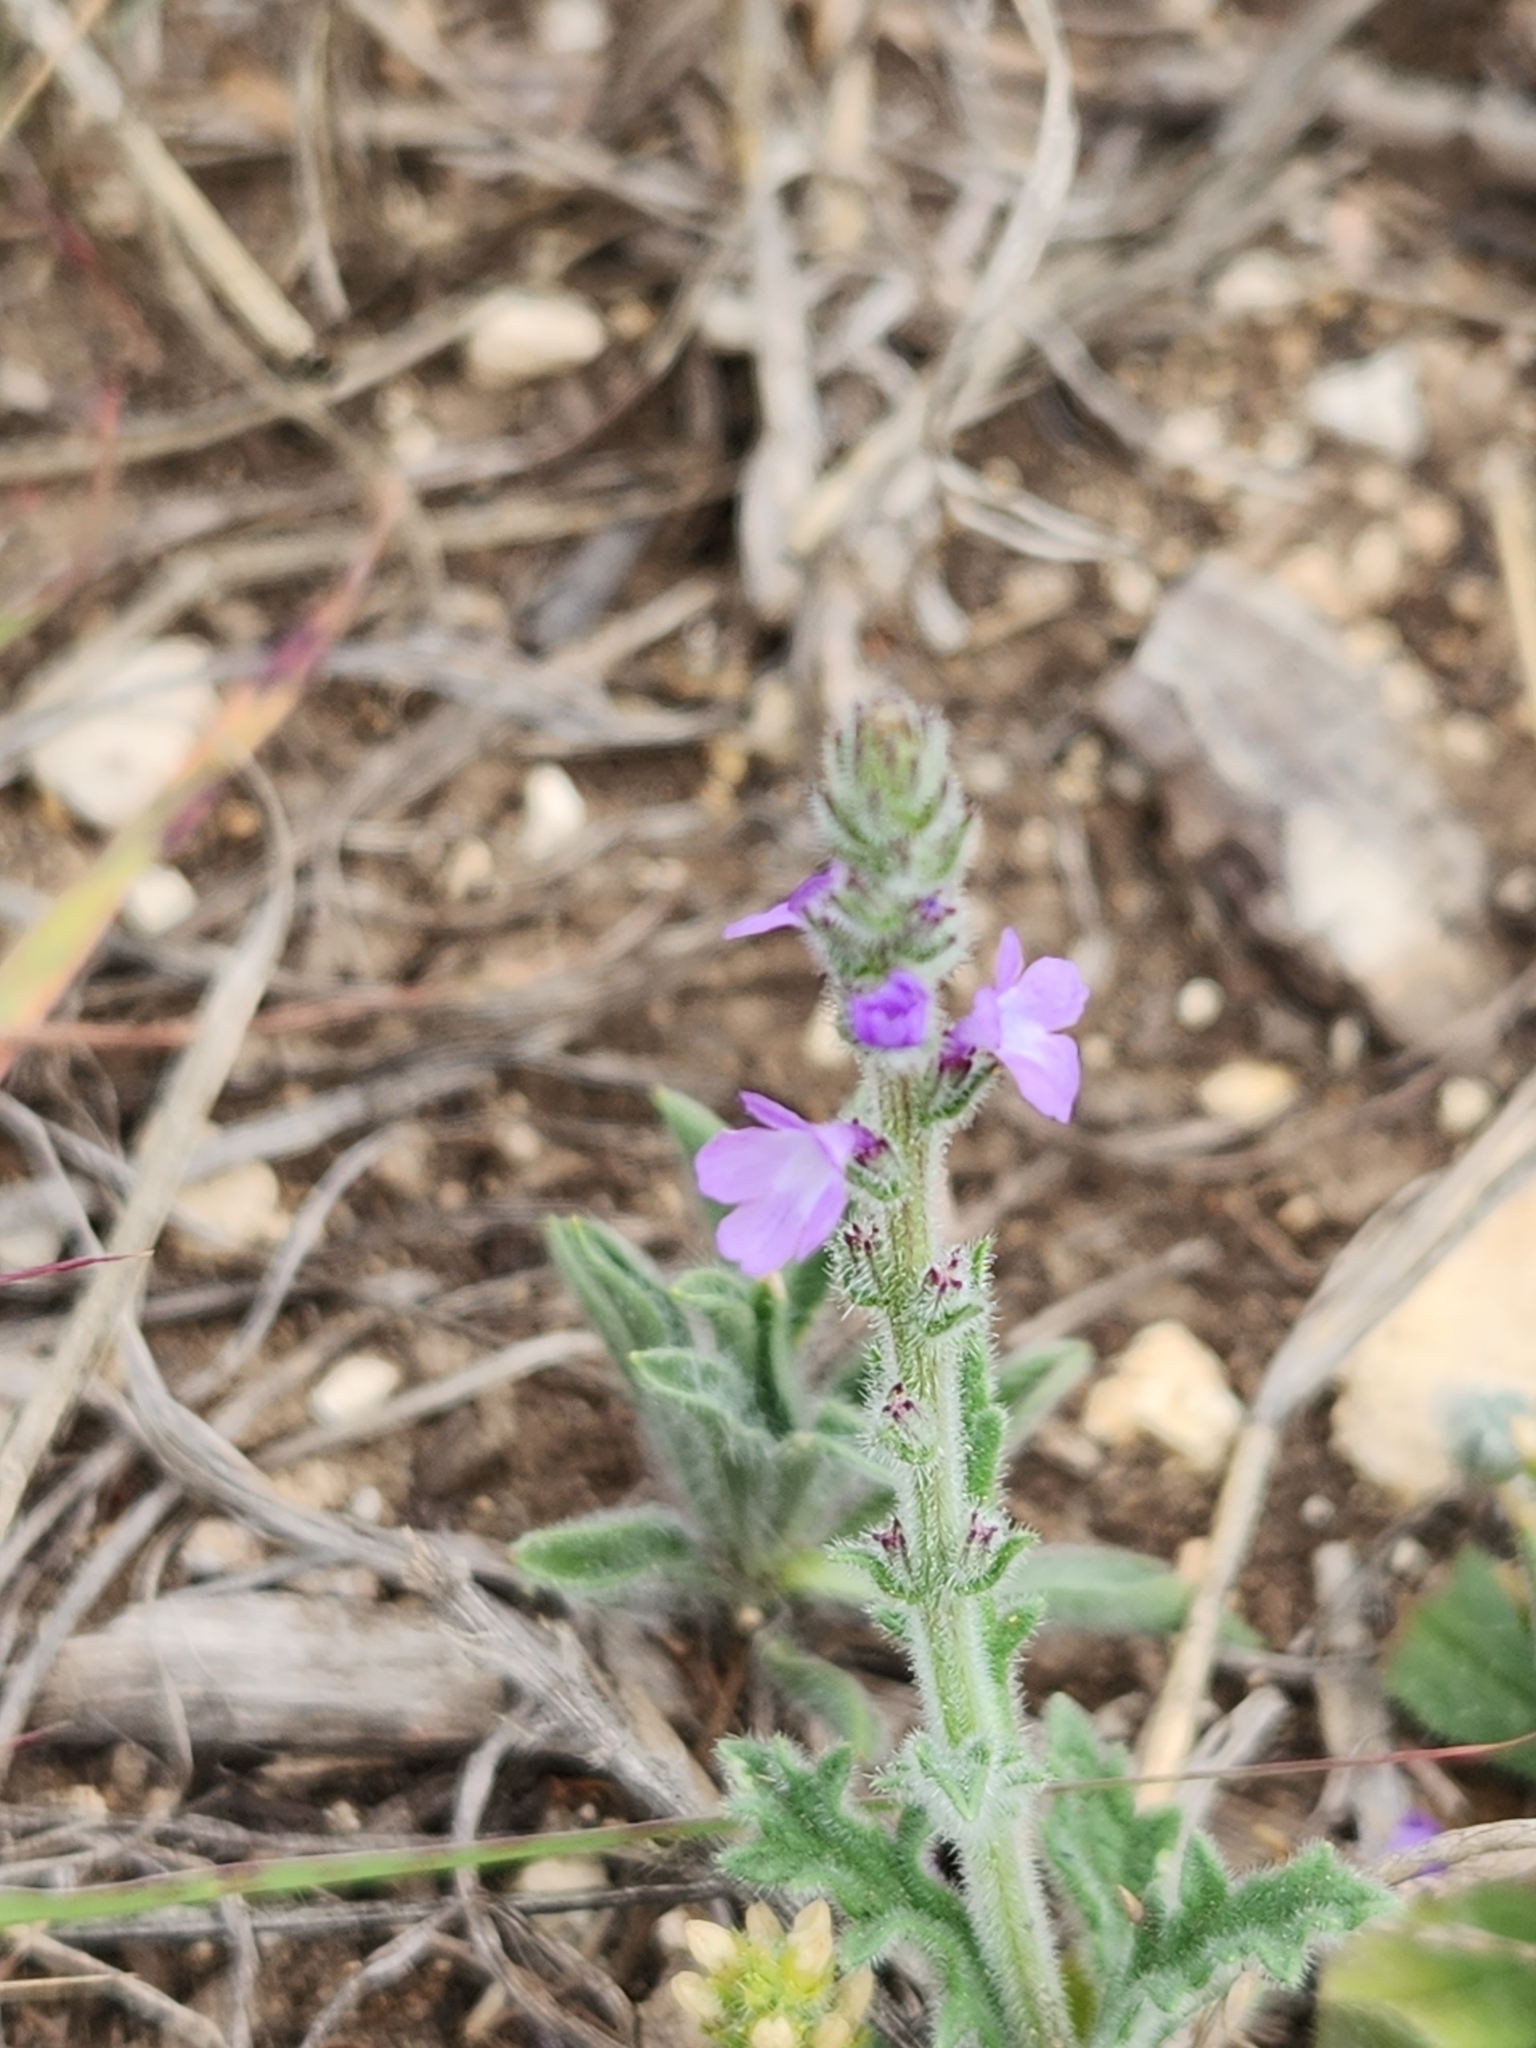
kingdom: Plantae
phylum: Tracheophyta
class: Magnoliopsida
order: Lamiales
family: Verbenaceae
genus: Verbena
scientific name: Verbena canescens
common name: Gray vervain
